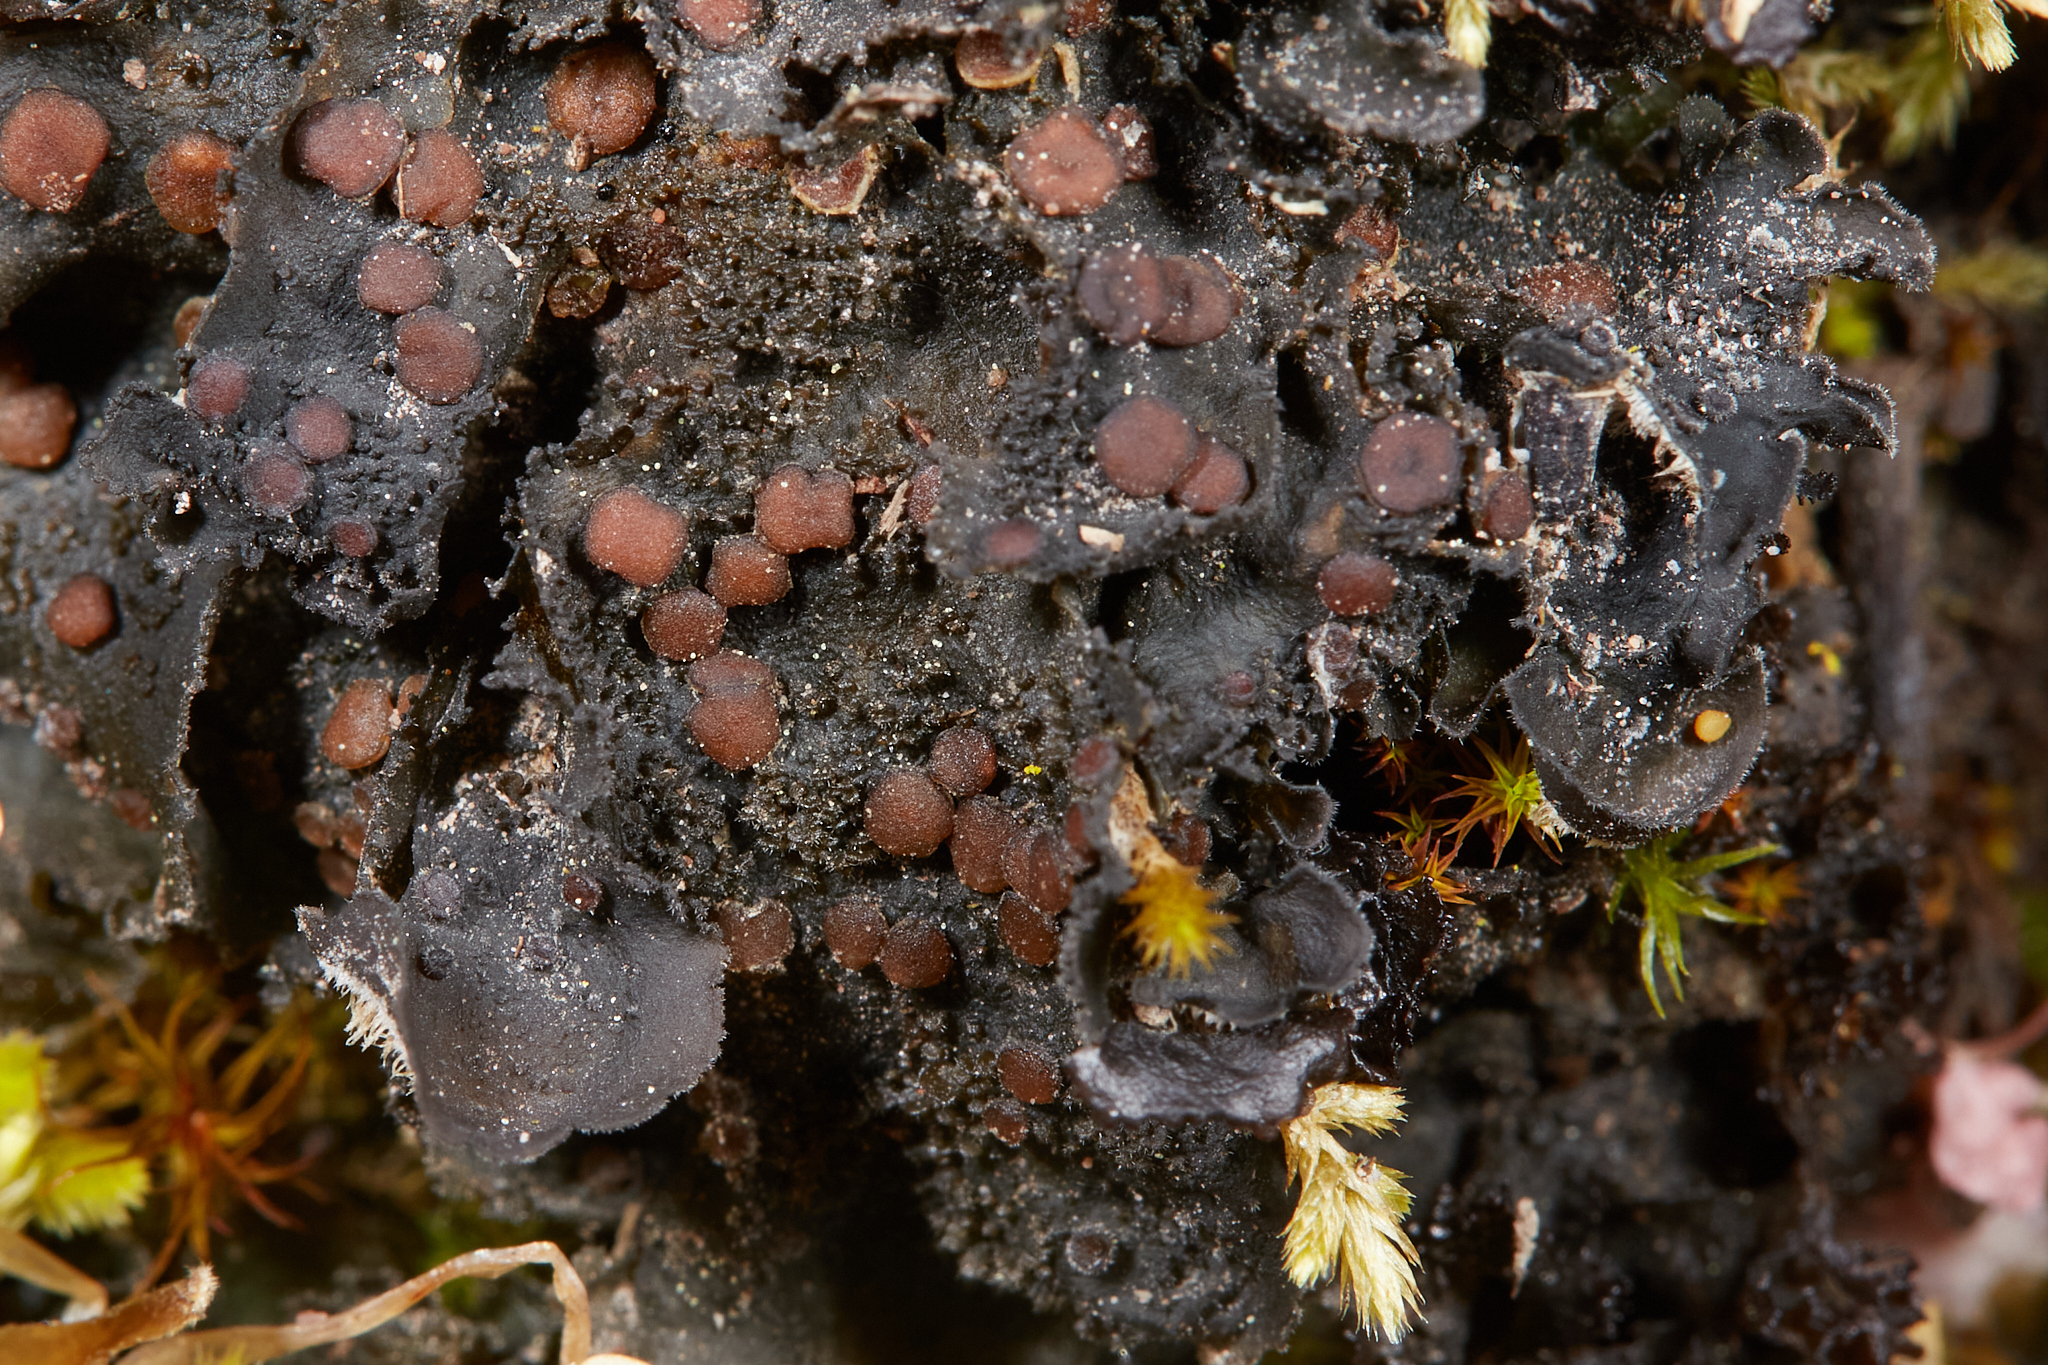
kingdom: Fungi
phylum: Ascomycota
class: Lecanoromycetes
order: Peltigerales
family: Massalongiaceae
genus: Leptochidium
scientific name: Leptochidium albociliatum
